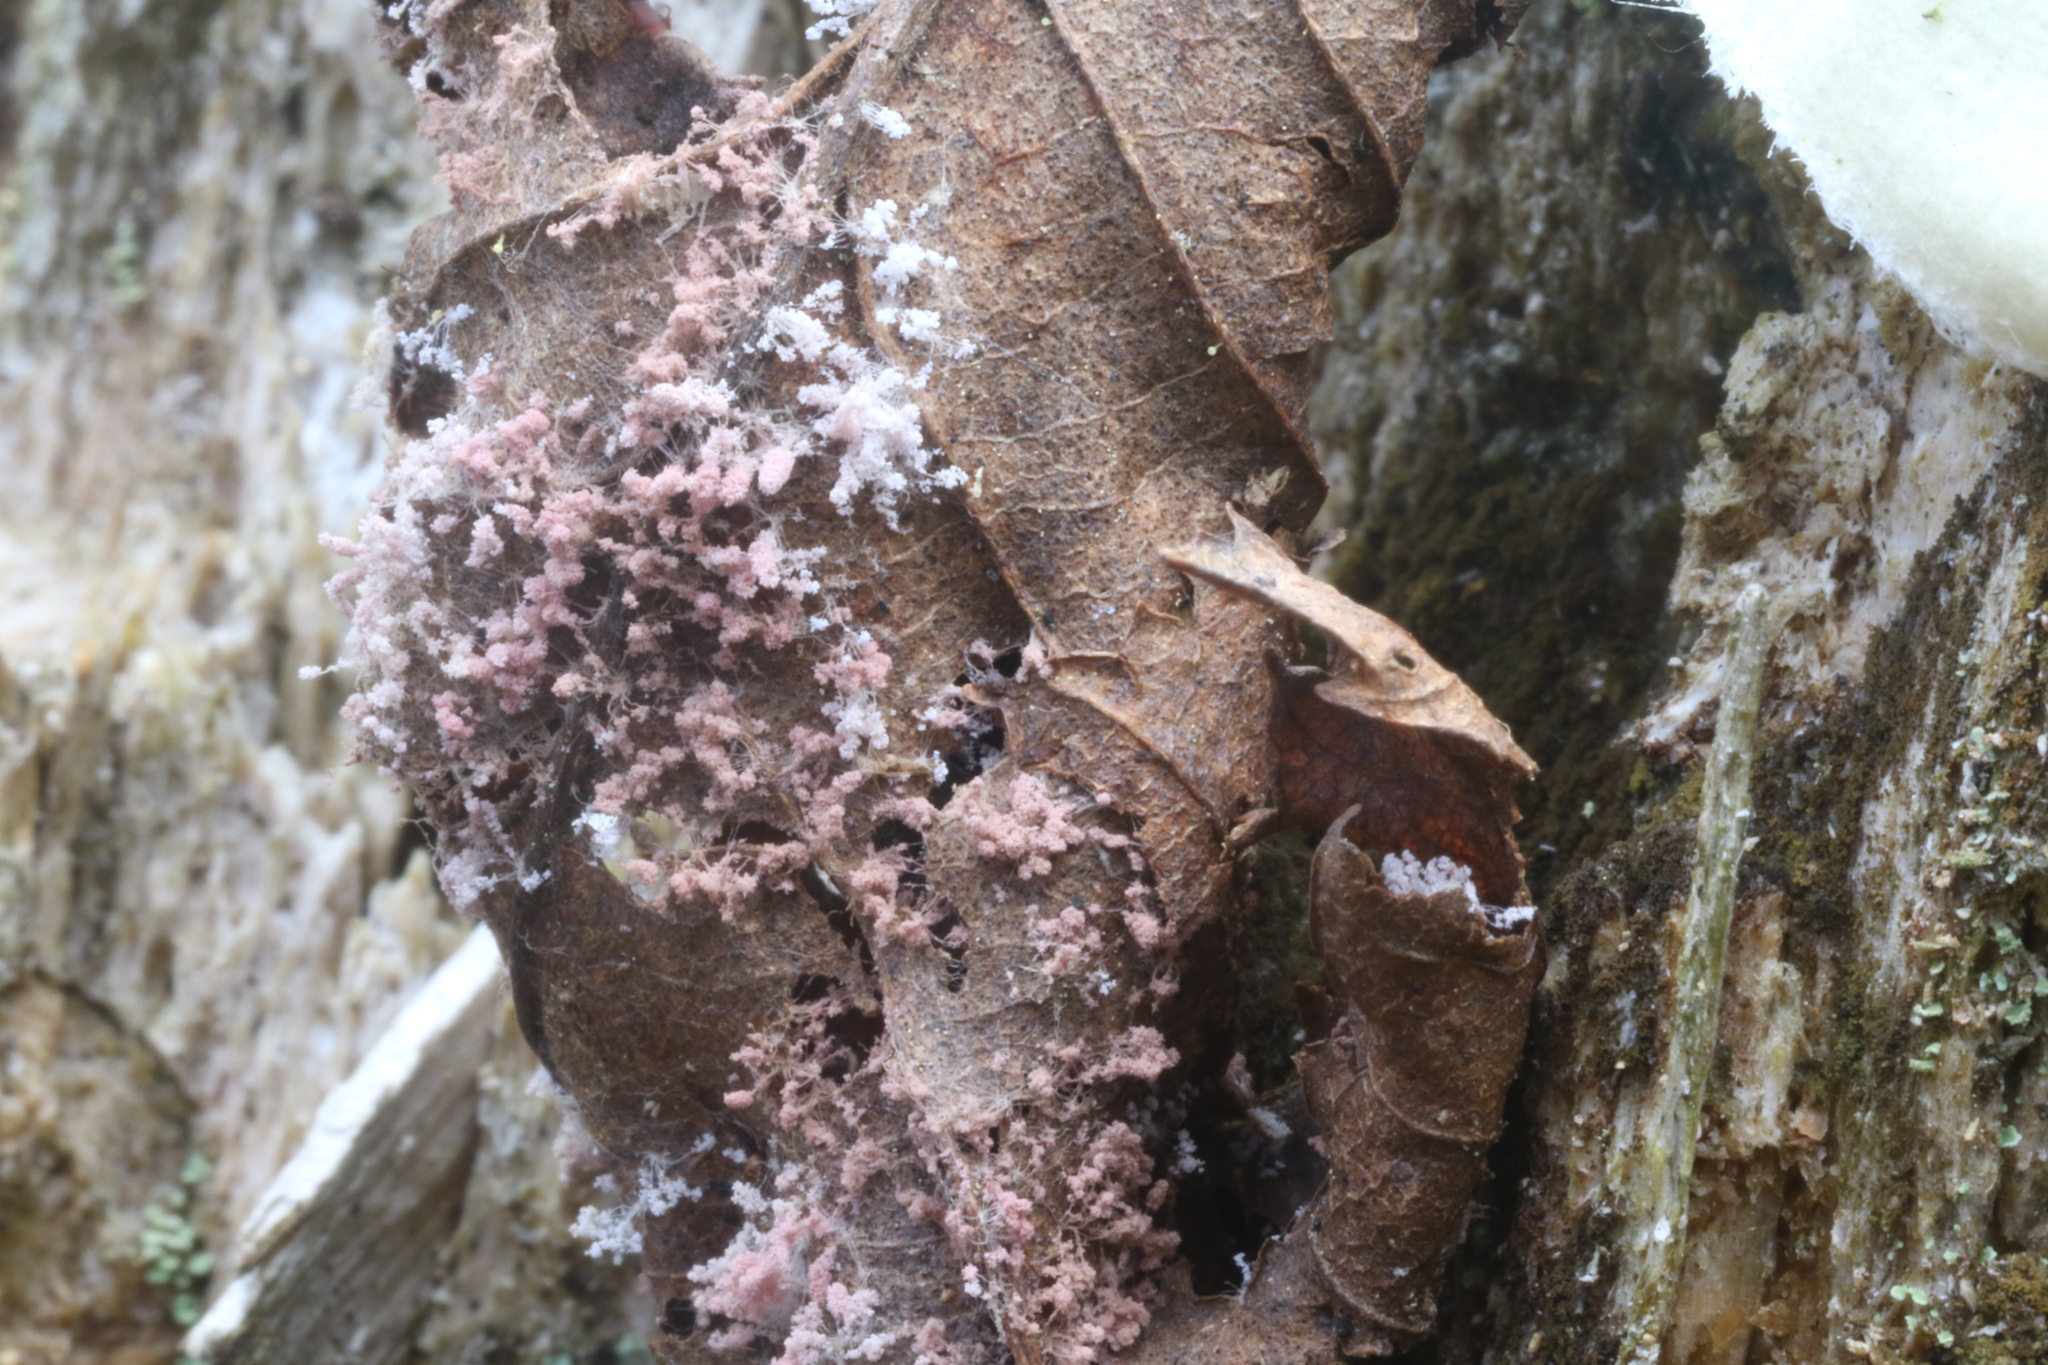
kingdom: Fungi
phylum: Ascomycota
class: Pezizomycetes
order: Pezizales
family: Pezizaceae
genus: Chromelosporiopsis
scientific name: Chromelosporiopsis carnea
